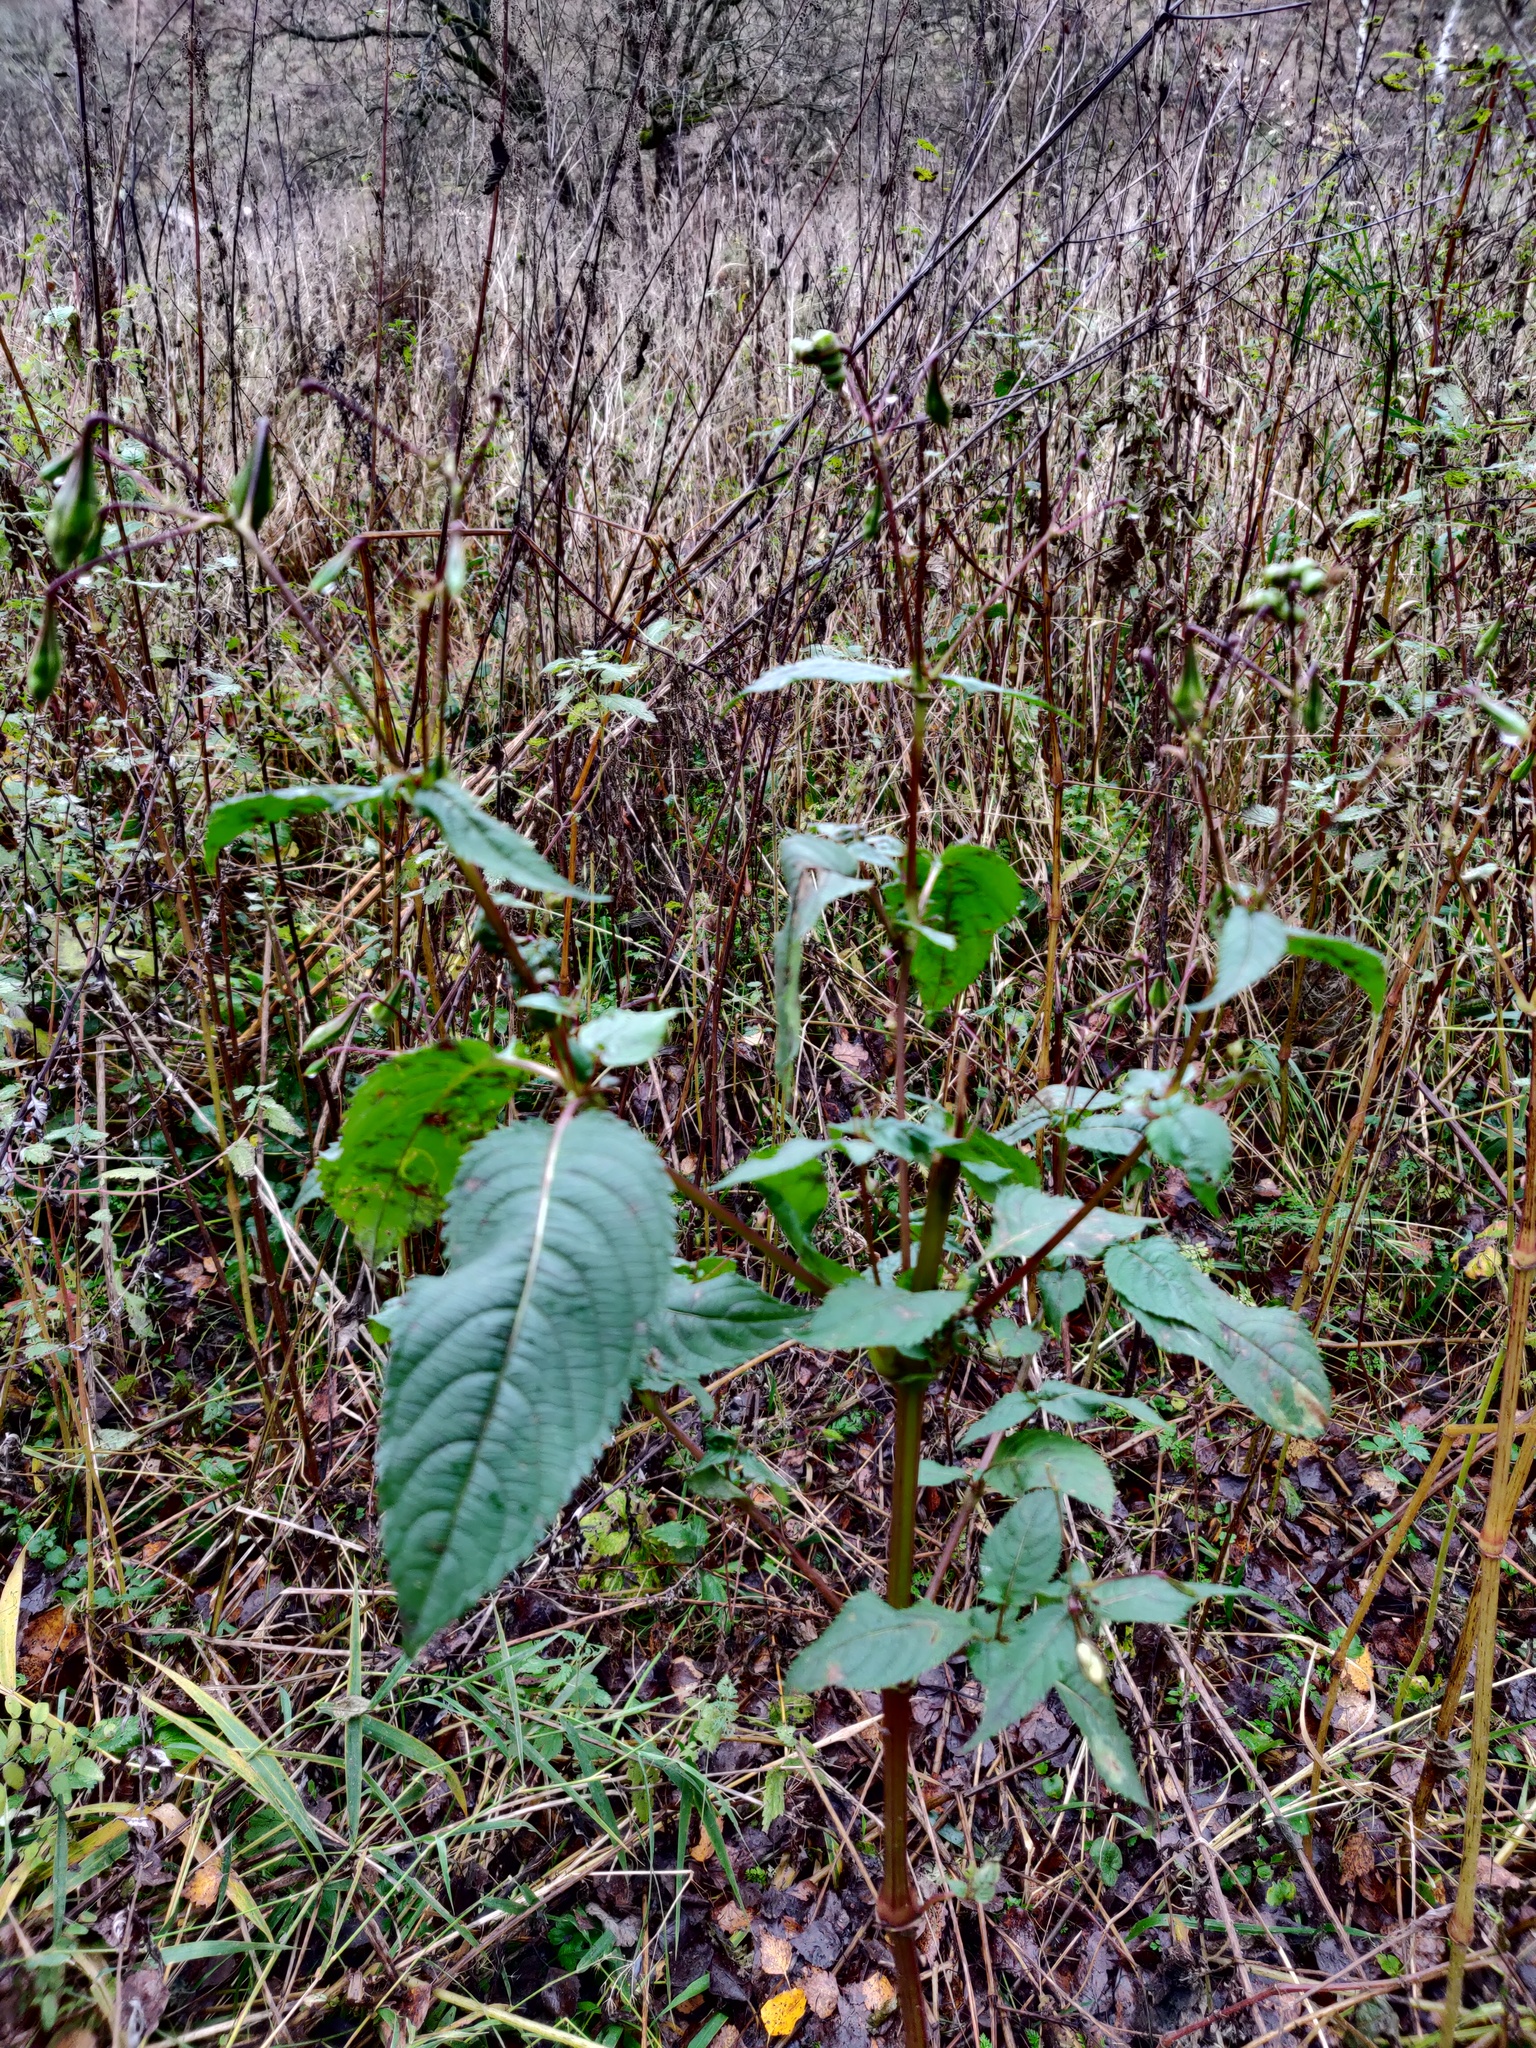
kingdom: Plantae
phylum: Tracheophyta
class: Magnoliopsida
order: Ericales
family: Balsaminaceae
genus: Impatiens
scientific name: Impatiens glandulifera
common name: Himalayan balsam
